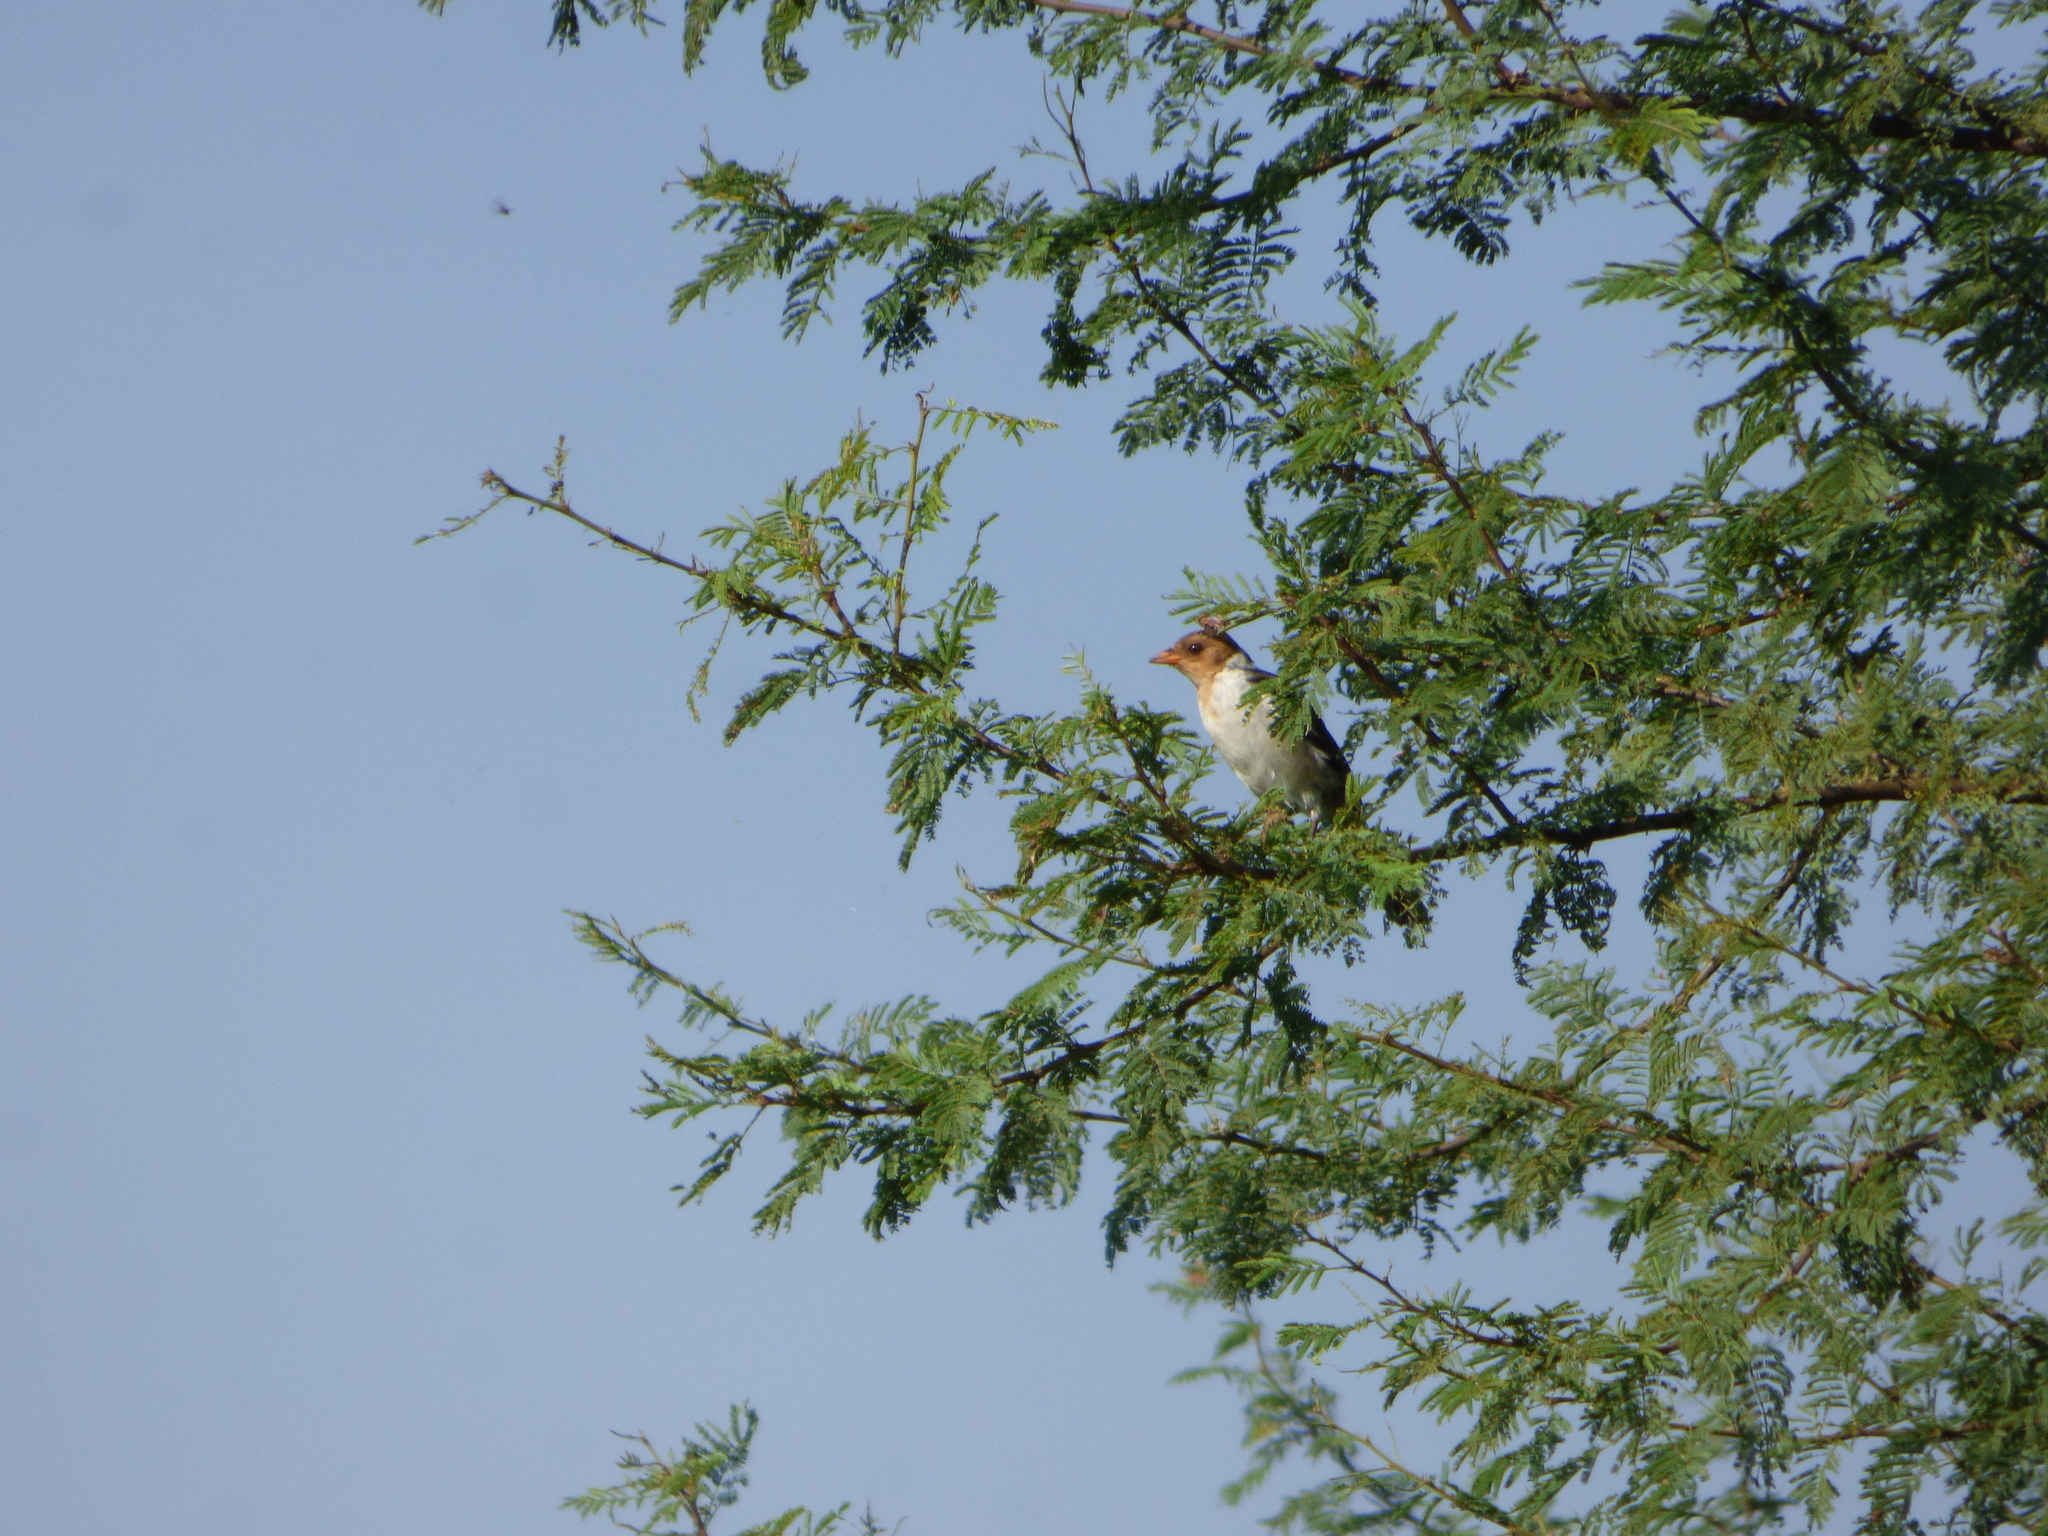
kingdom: Animalia
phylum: Chordata
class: Aves
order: Passeriformes
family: Thraupidae
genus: Paroaria
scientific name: Paroaria capitata
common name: Yellow-billed cardinal
